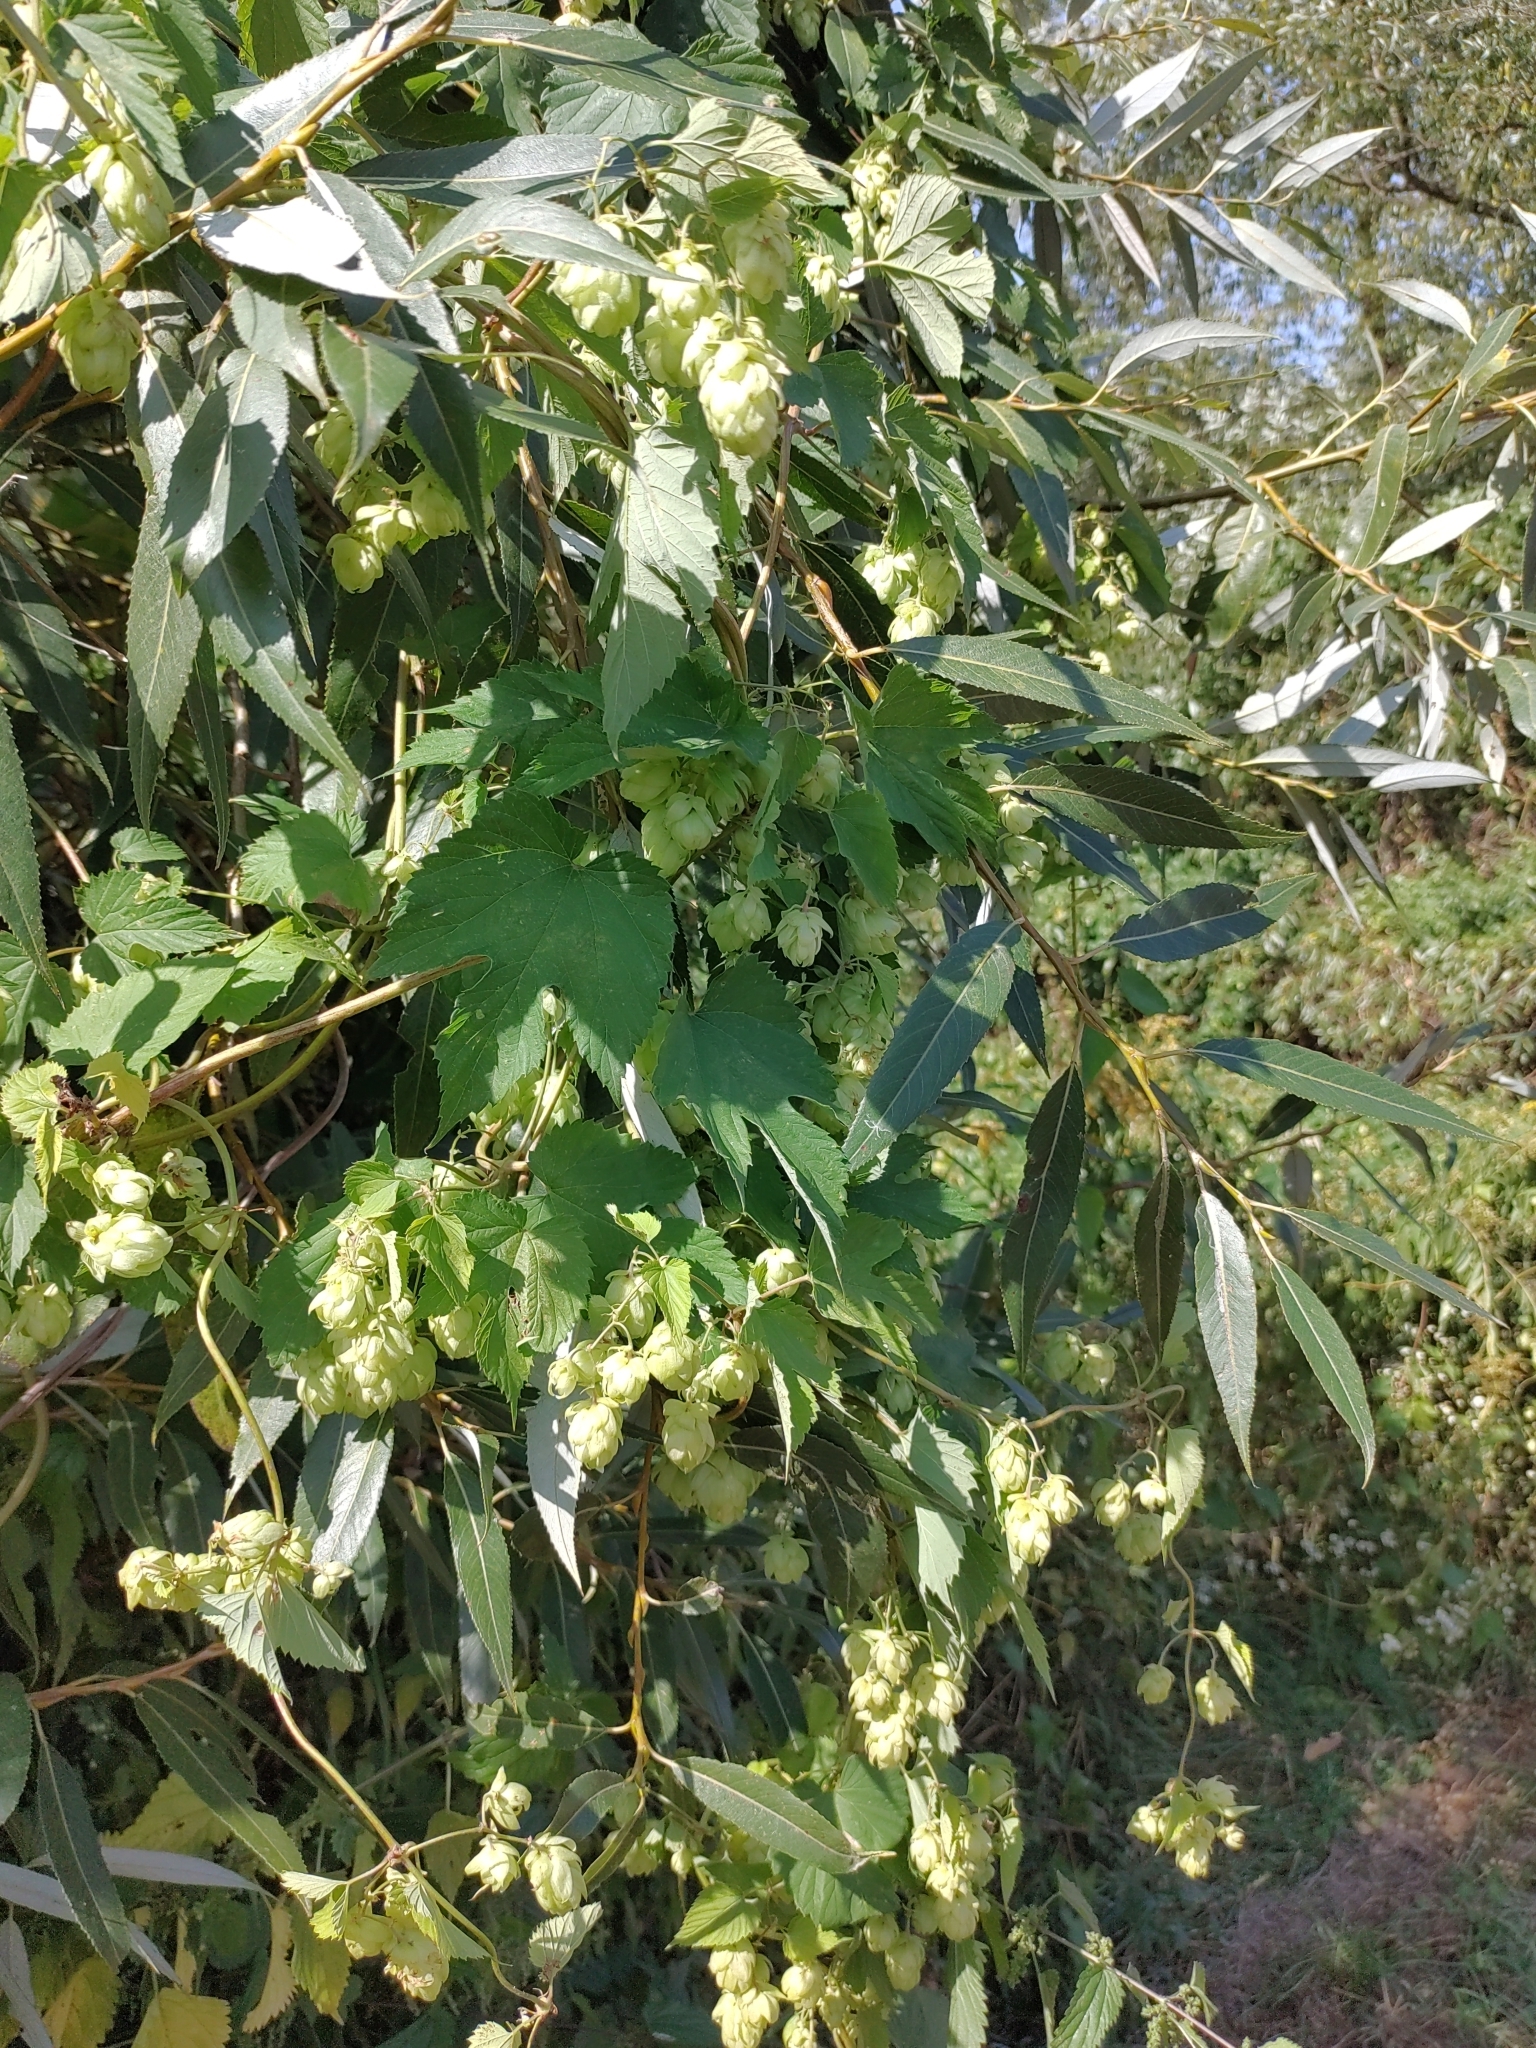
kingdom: Plantae
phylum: Tracheophyta
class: Magnoliopsida
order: Rosales
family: Cannabaceae
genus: Humulus
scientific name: Humulus lupulus
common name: Hop
